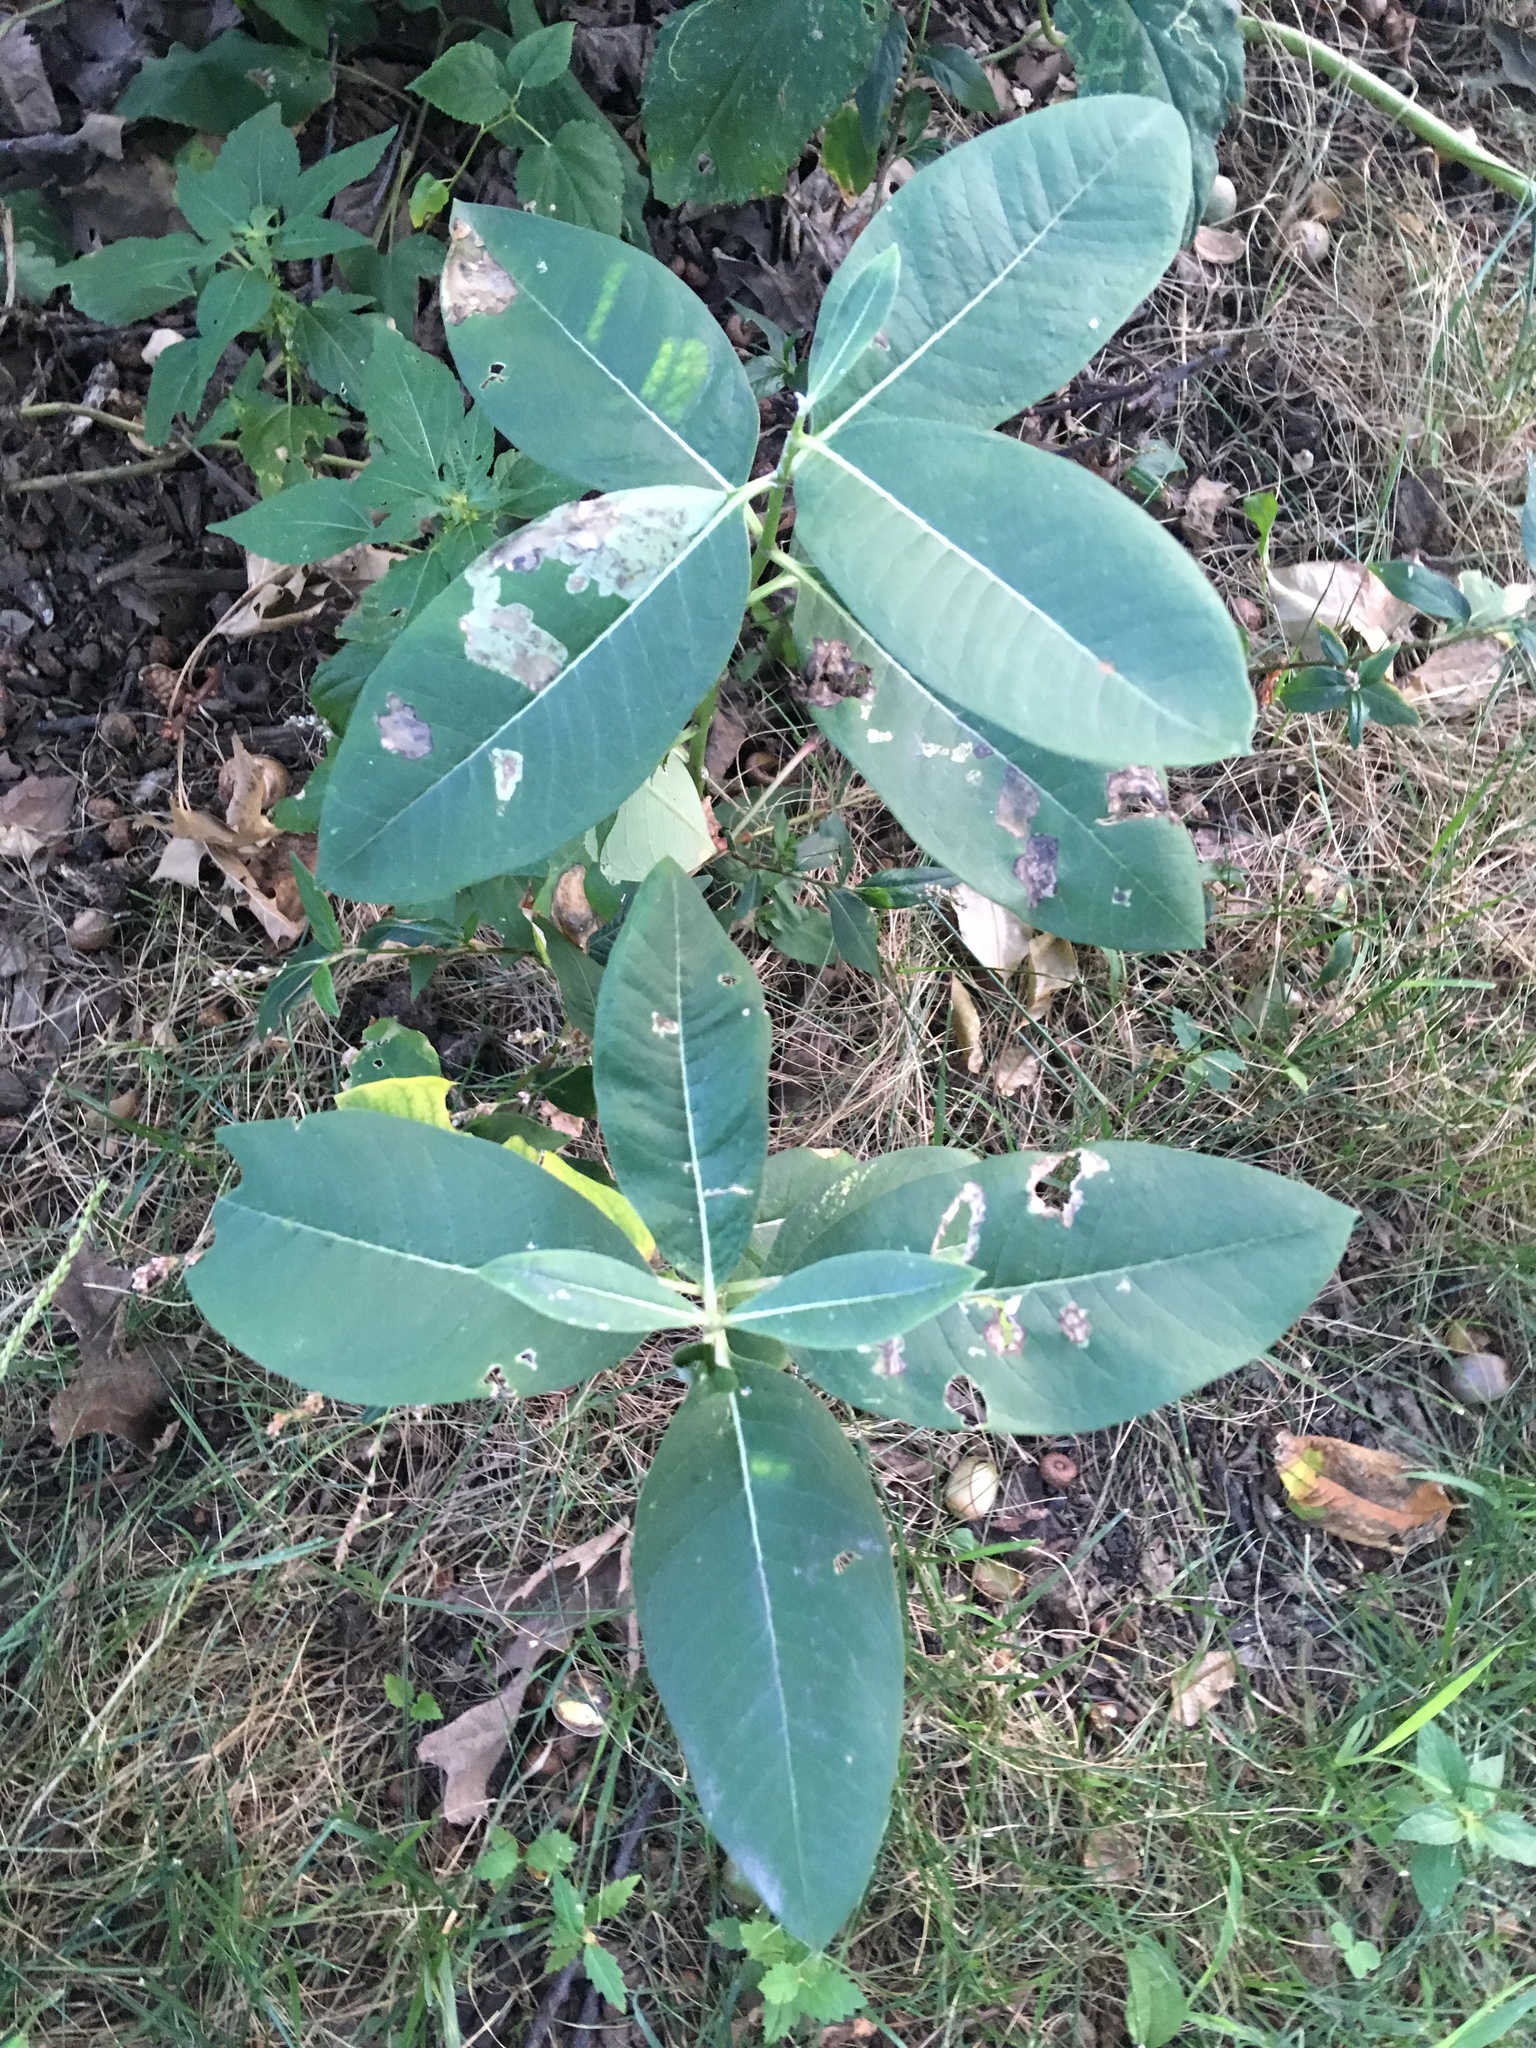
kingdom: Plantae
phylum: Tracheophyta
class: Magnoliopsida
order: Gentianales
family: Apocynaceae
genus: Asclepias
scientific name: Asclepias syriaca
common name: Common milkweed
